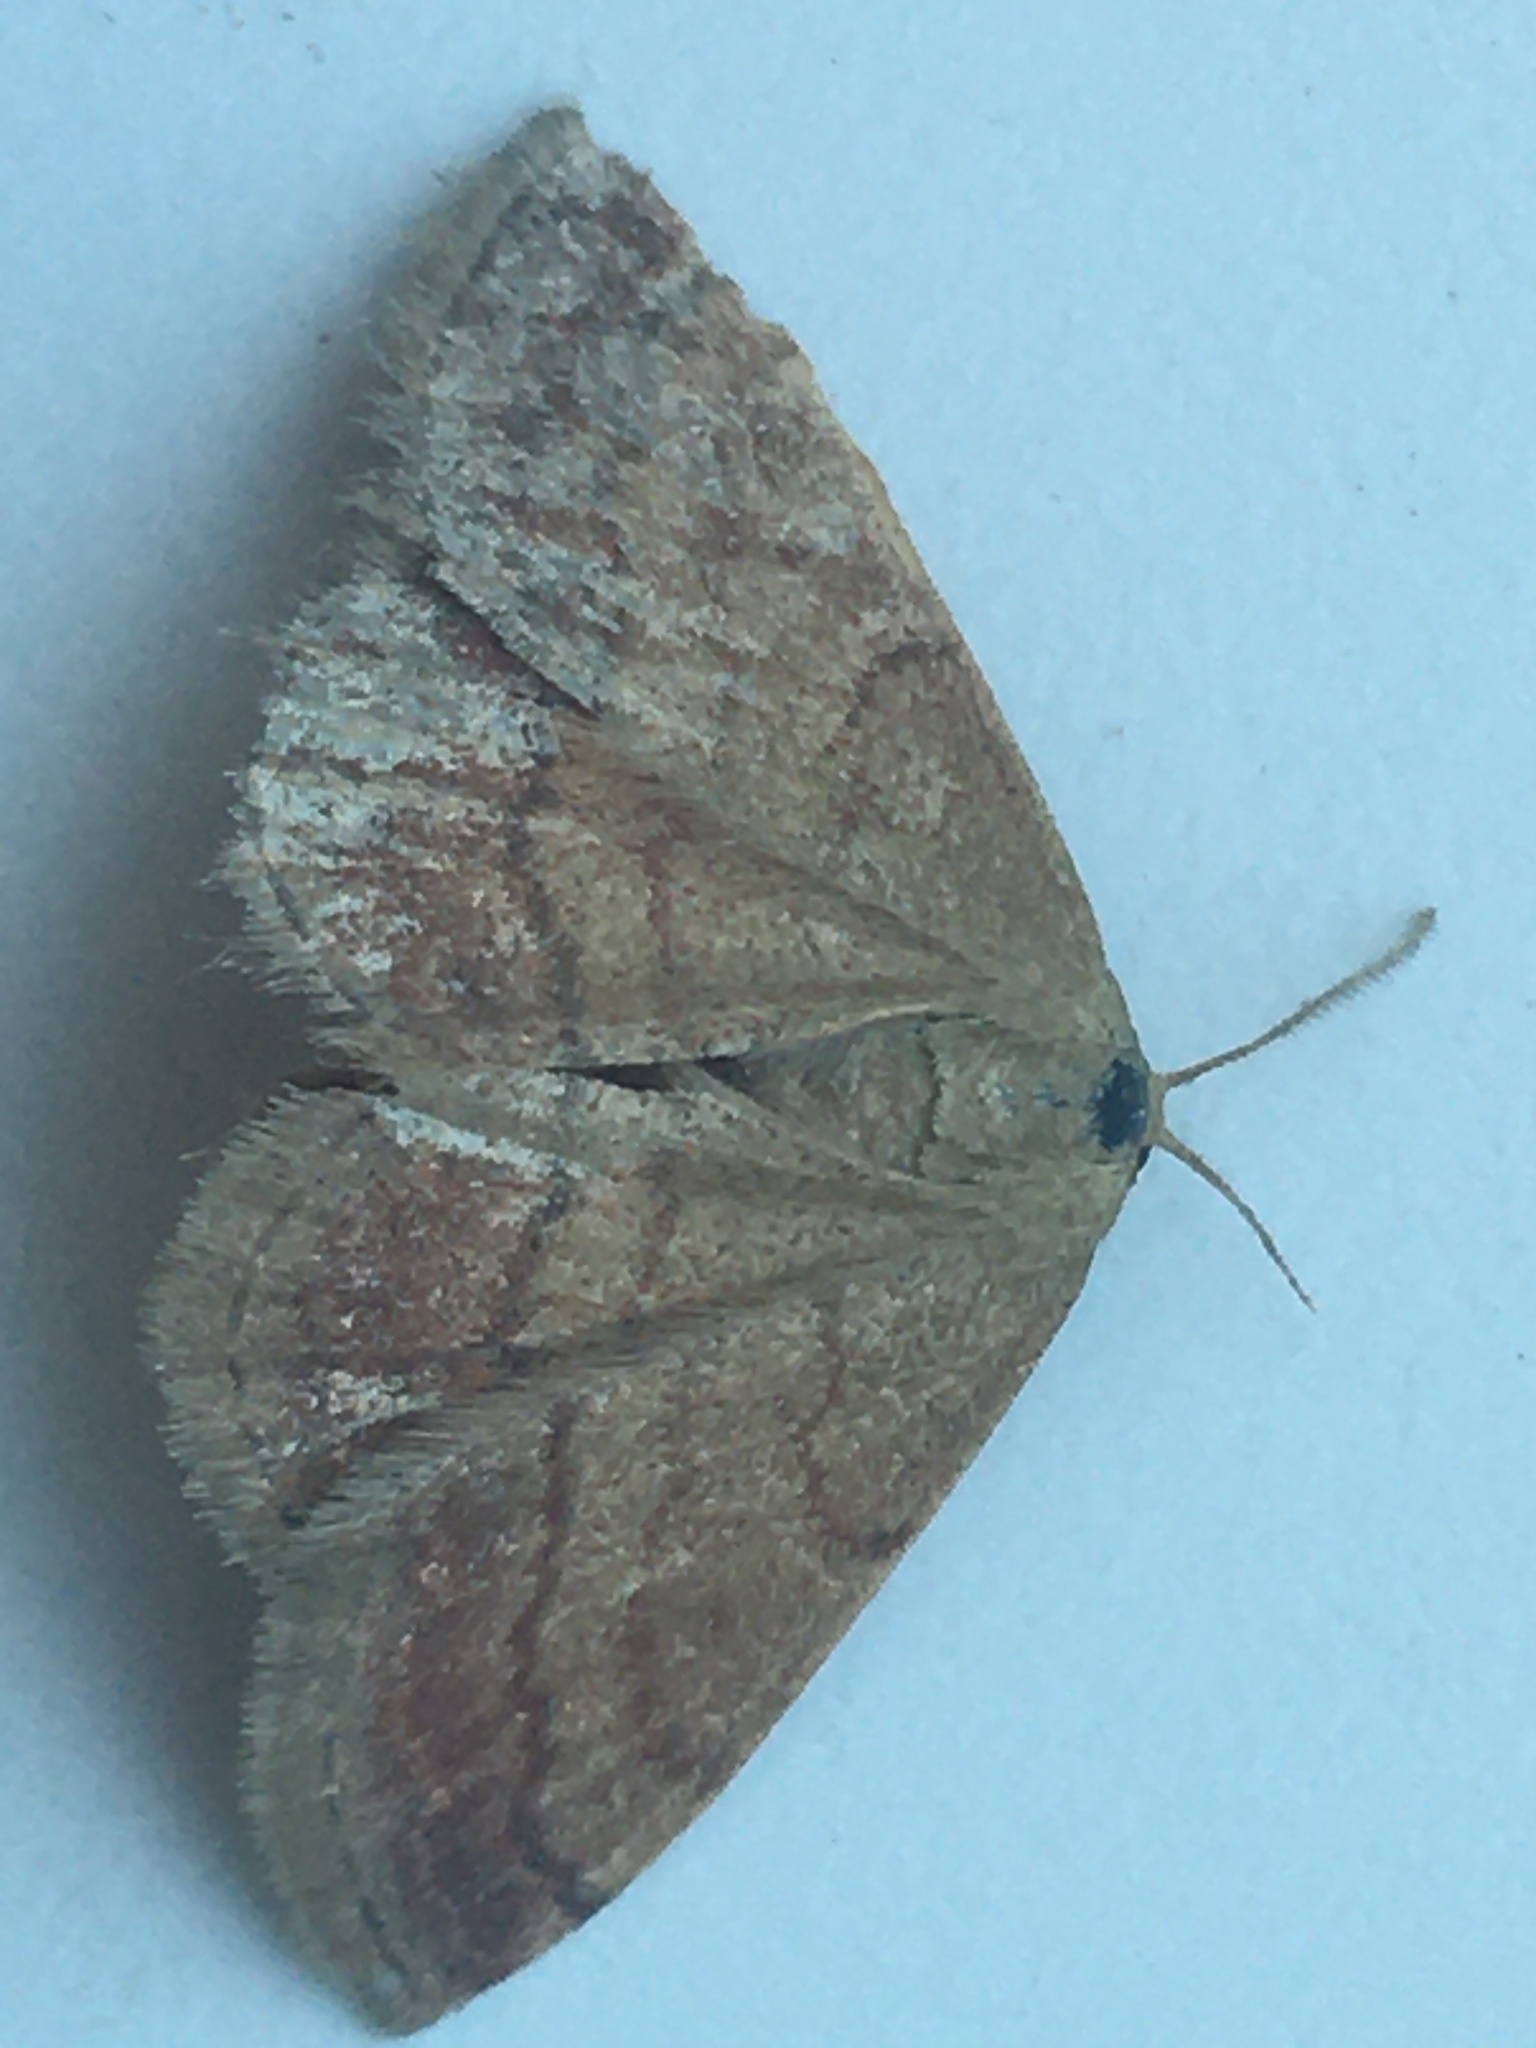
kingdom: Animalia
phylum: Arthropoda
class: Insecta
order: Lepidoptera
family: Geometridae
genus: Scopula
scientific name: Scopula rubiginata
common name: Tawny wave
